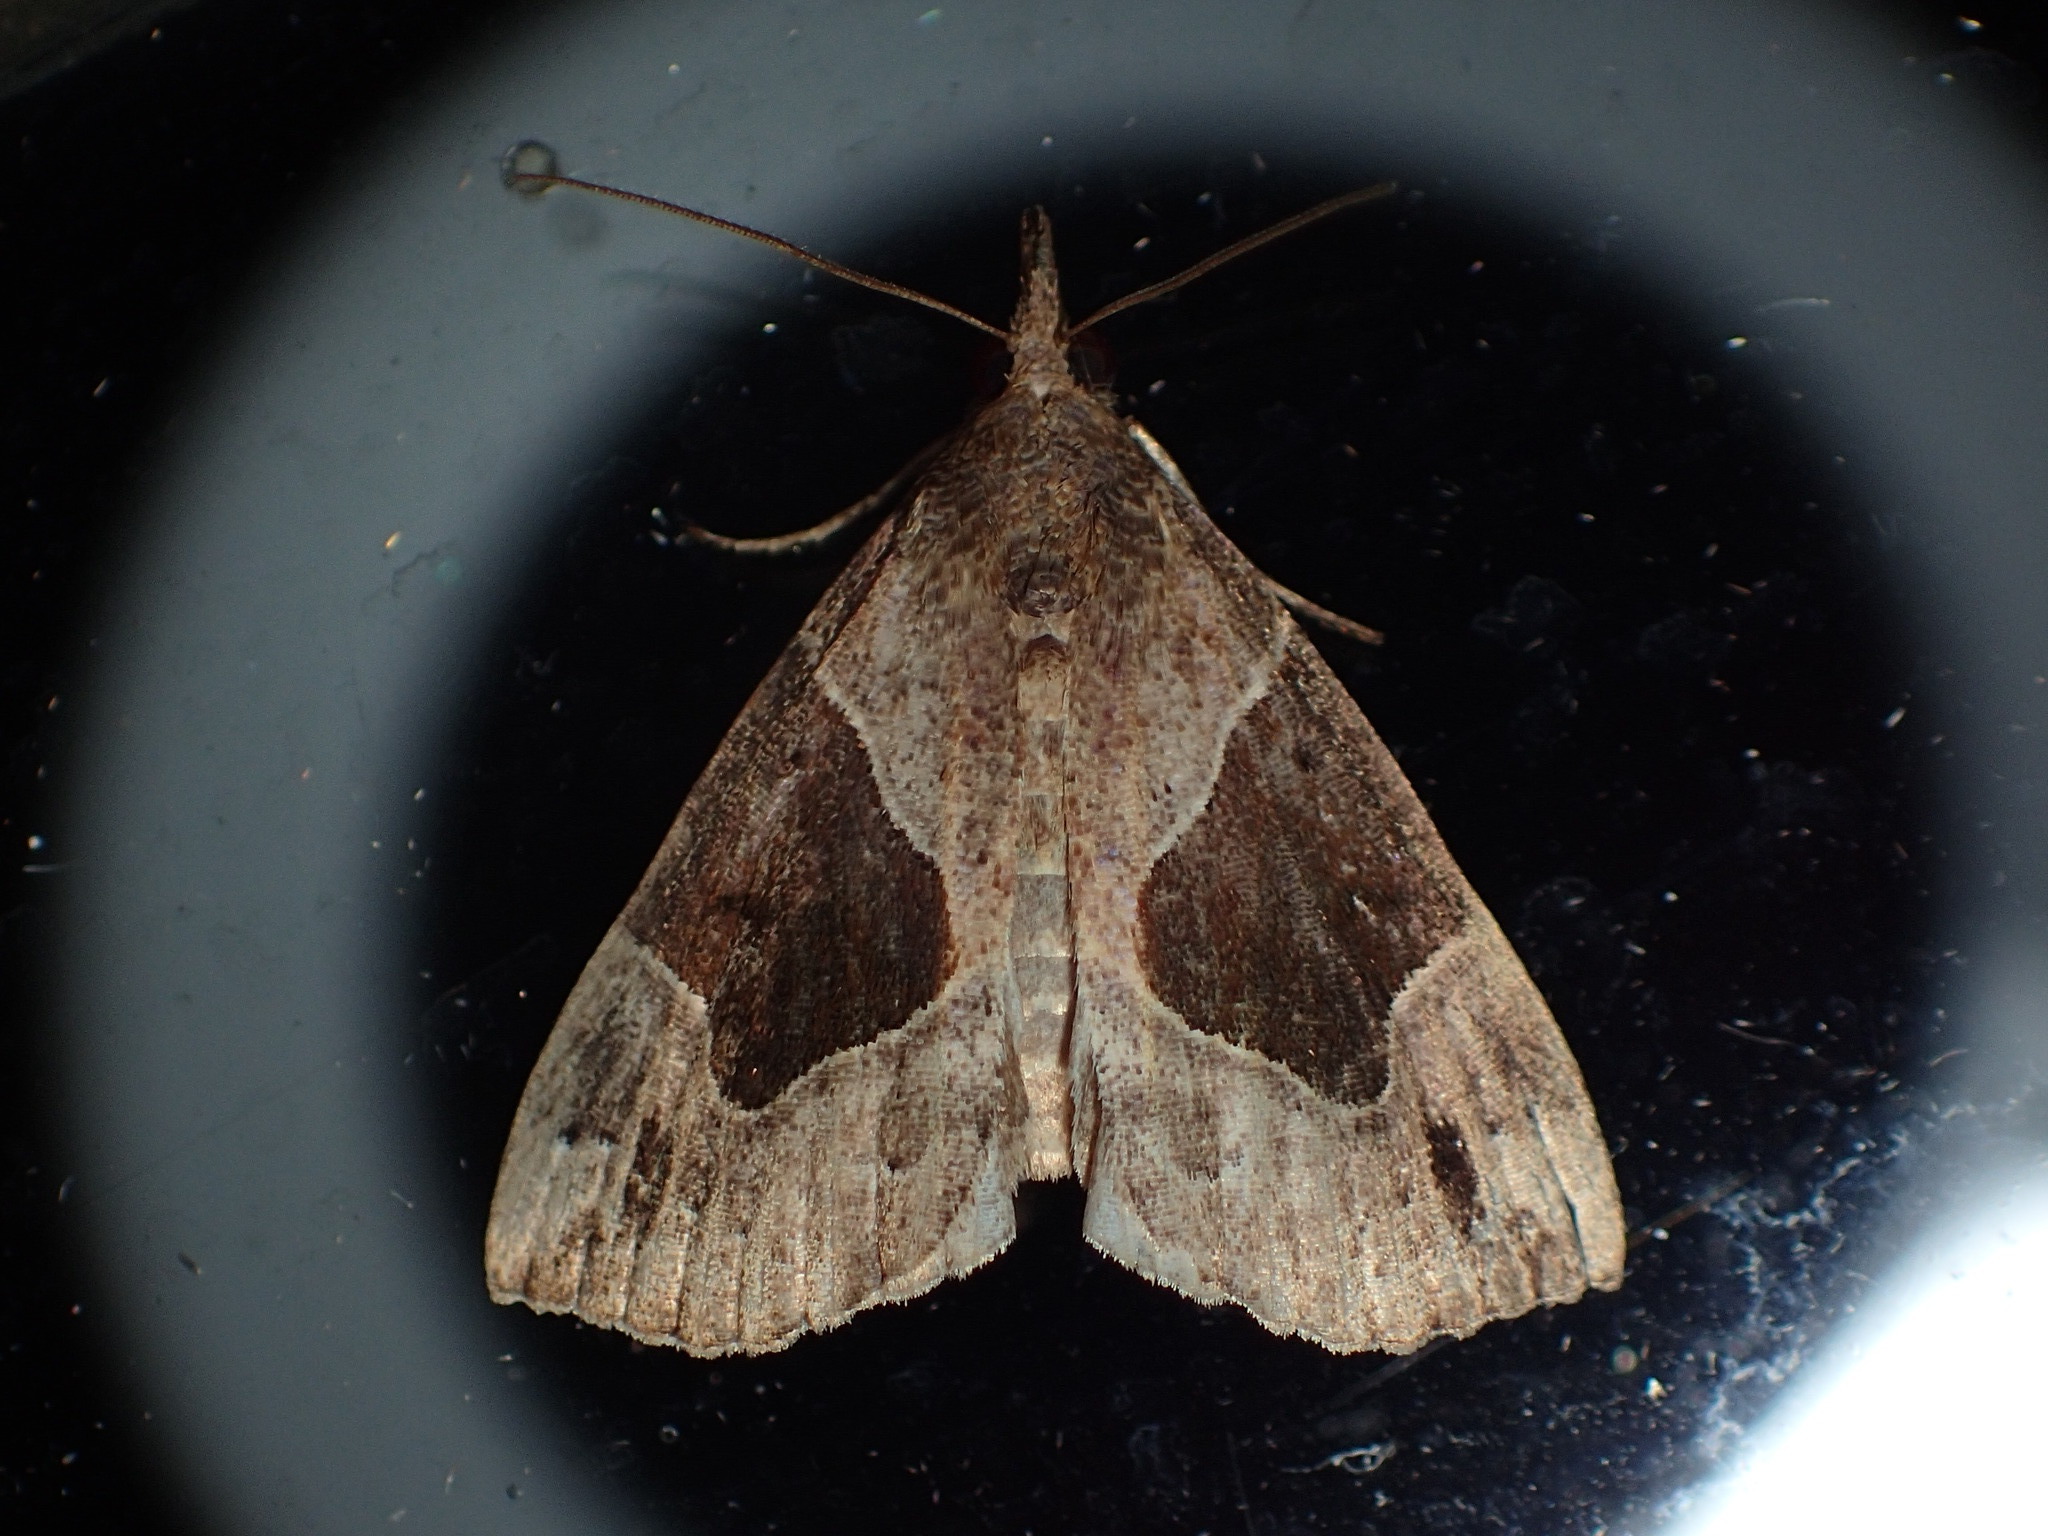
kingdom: Animalia
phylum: Arthropoda
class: Insecta
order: Lepidoptera
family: Erebidae
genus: Hypena
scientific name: Hypena manalis
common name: Flowing-line bomolocha moth
